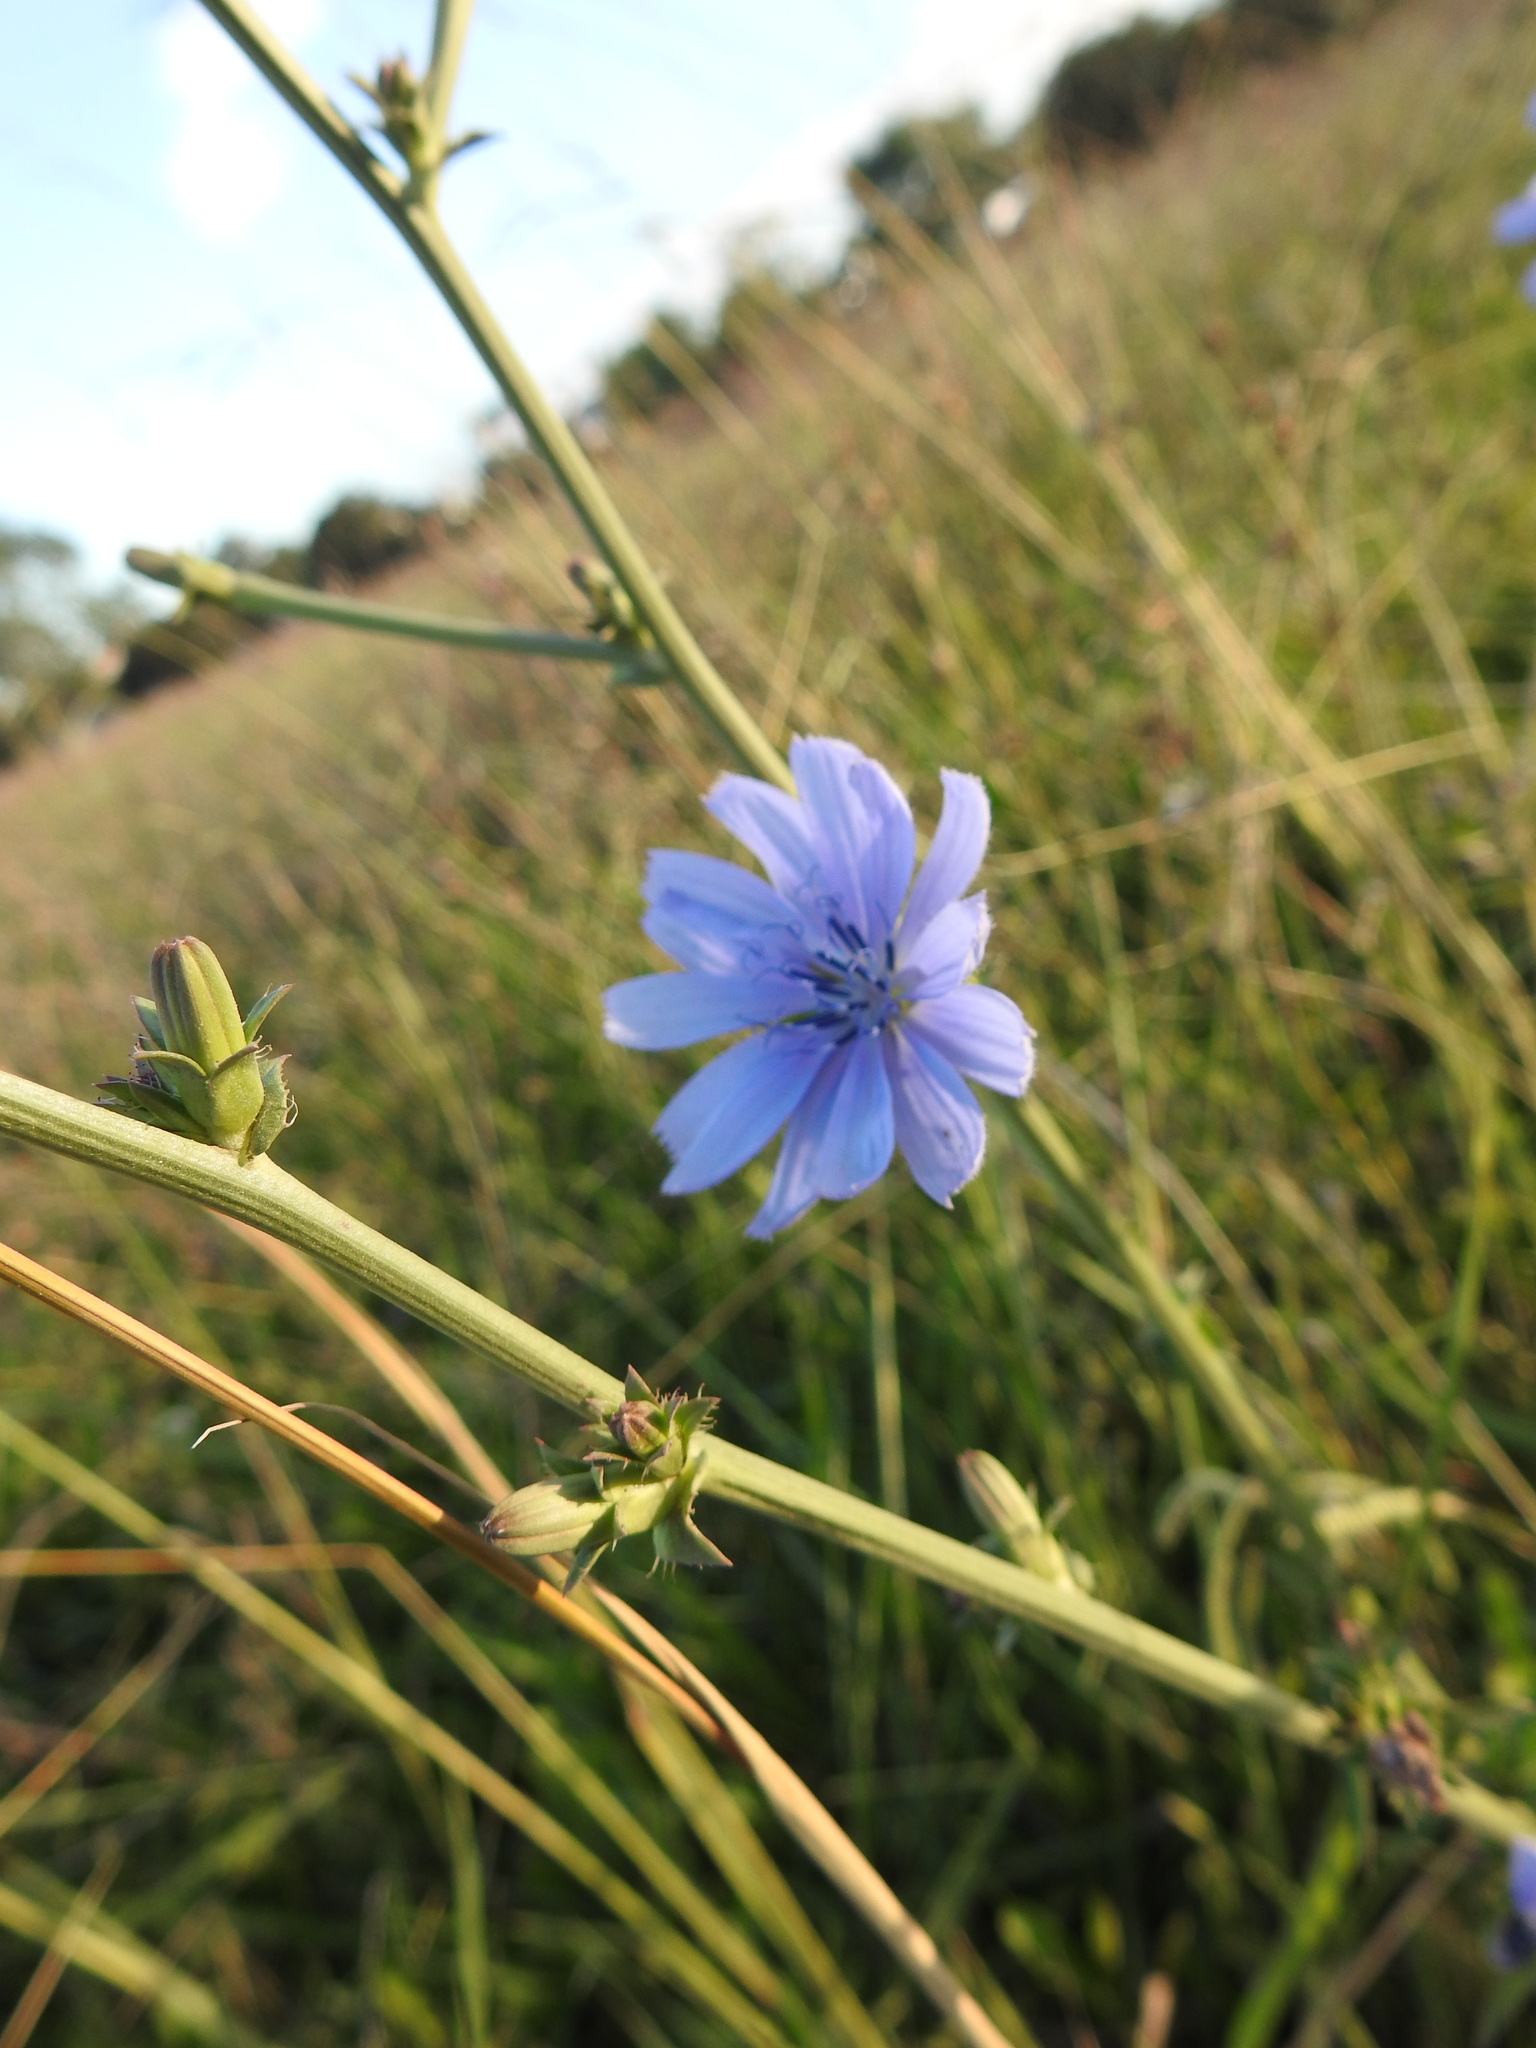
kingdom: Plantae
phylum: Tracheophyta
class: Magnoliopsida
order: Asterales
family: Asteraceae
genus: Cichorium
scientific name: Cichorium intybus
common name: Chicory
